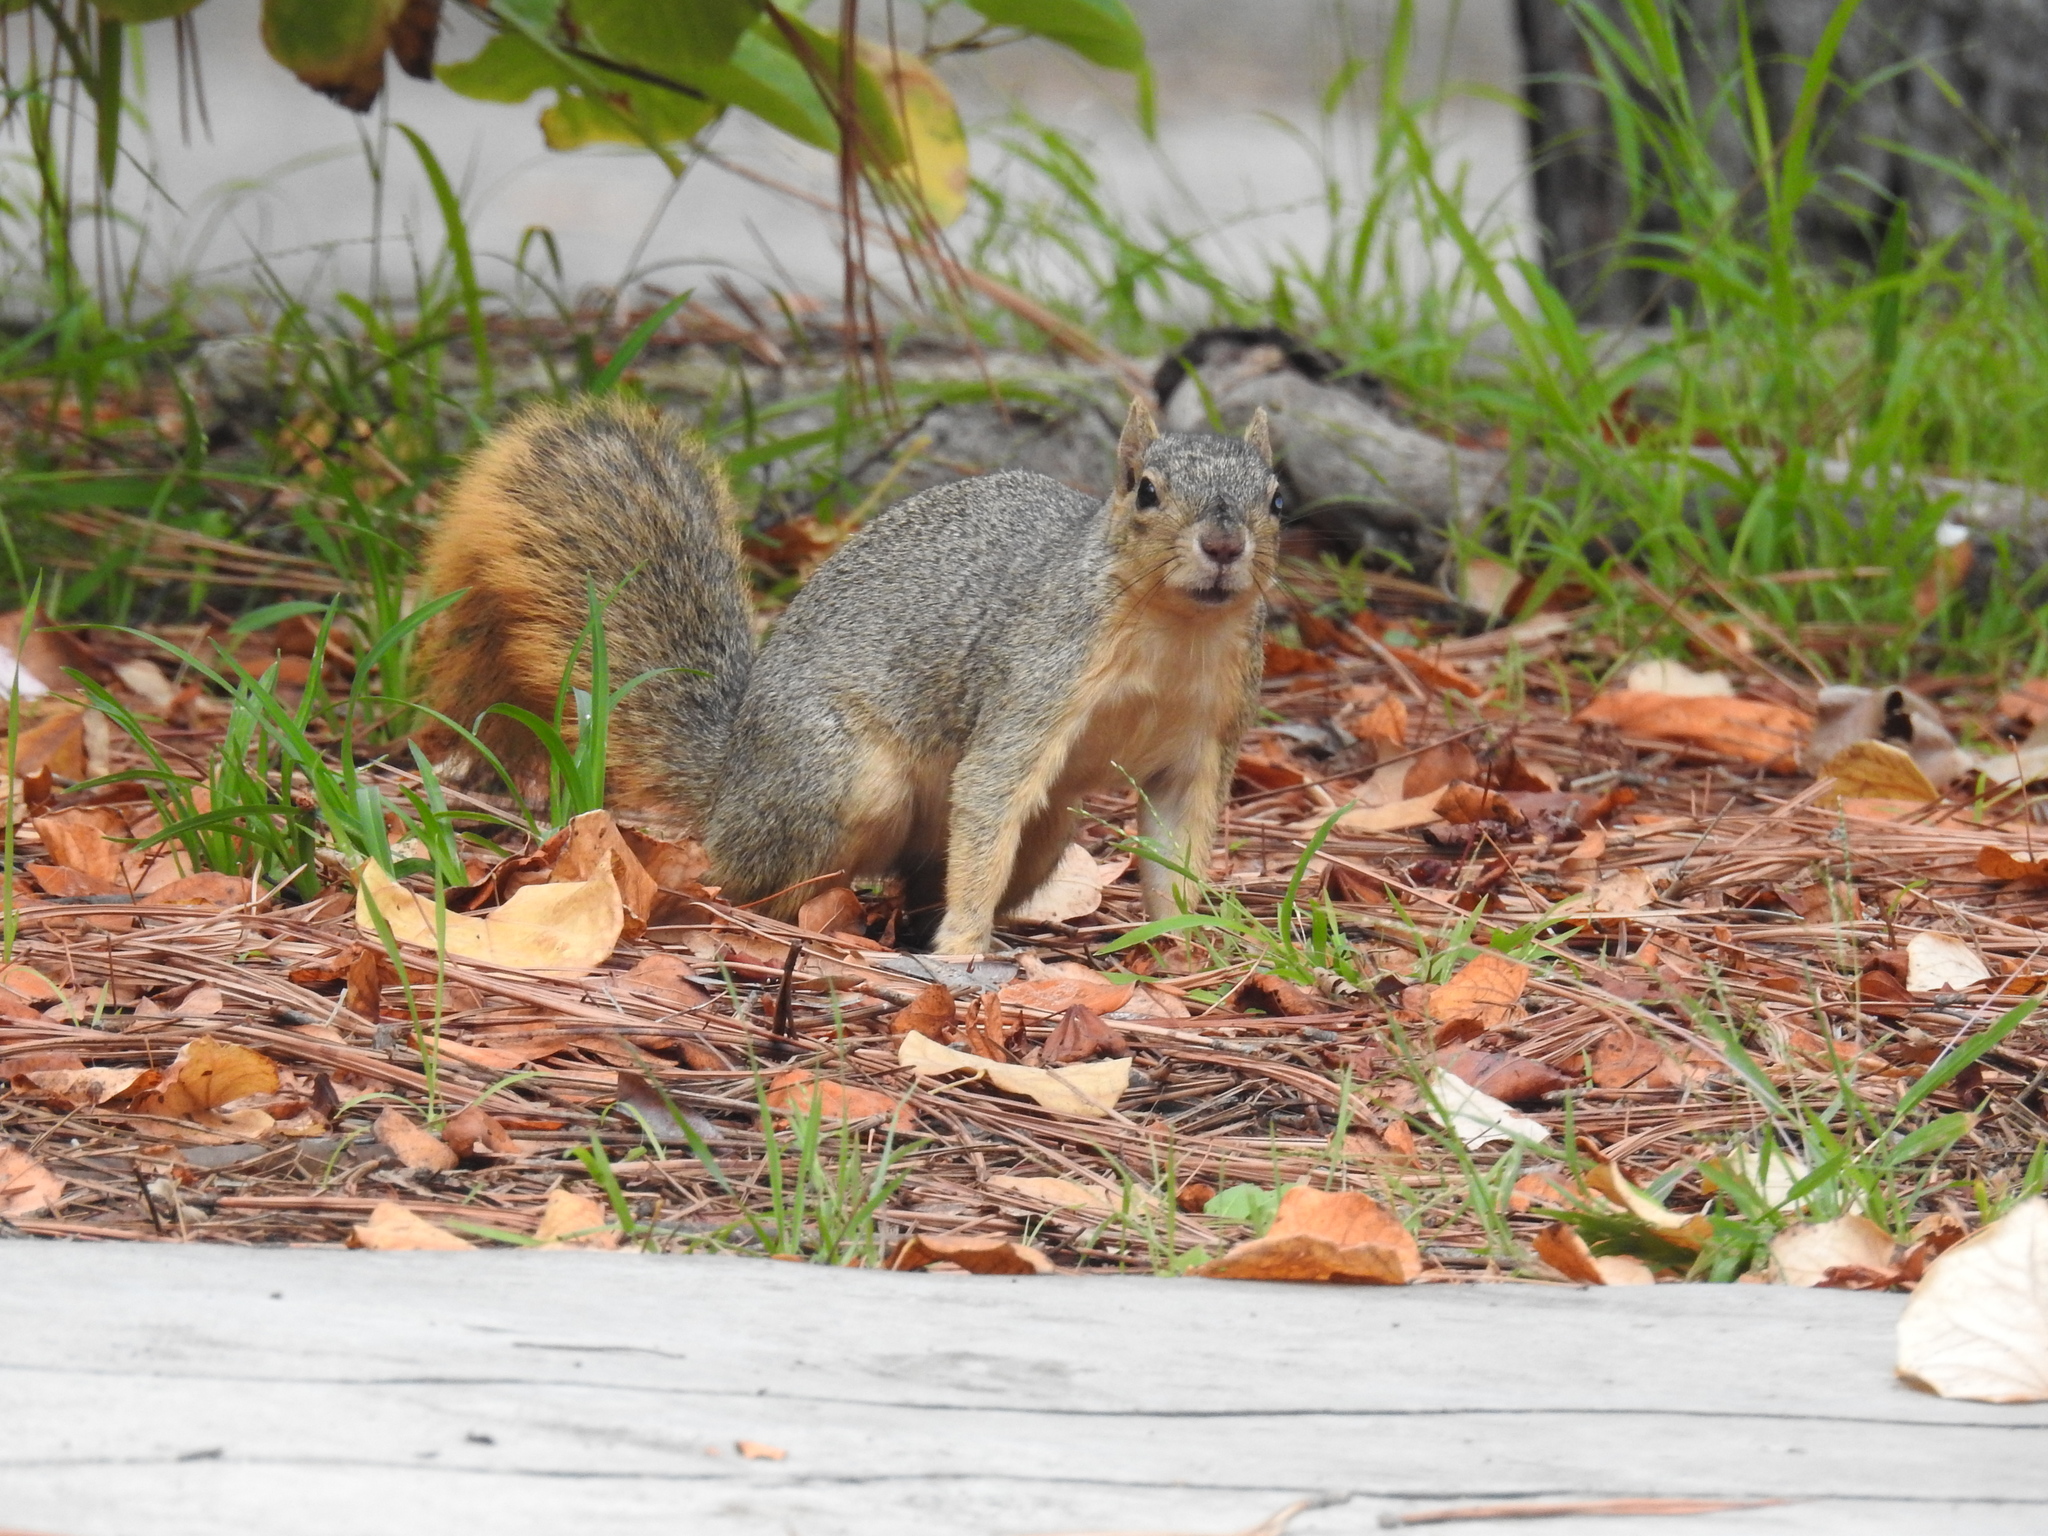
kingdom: Animalia
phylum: Chordata
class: Mammalia
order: Rodentia
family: Sciuridae
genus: Sciurus
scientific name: Sciurus niger
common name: Fox squirrel
